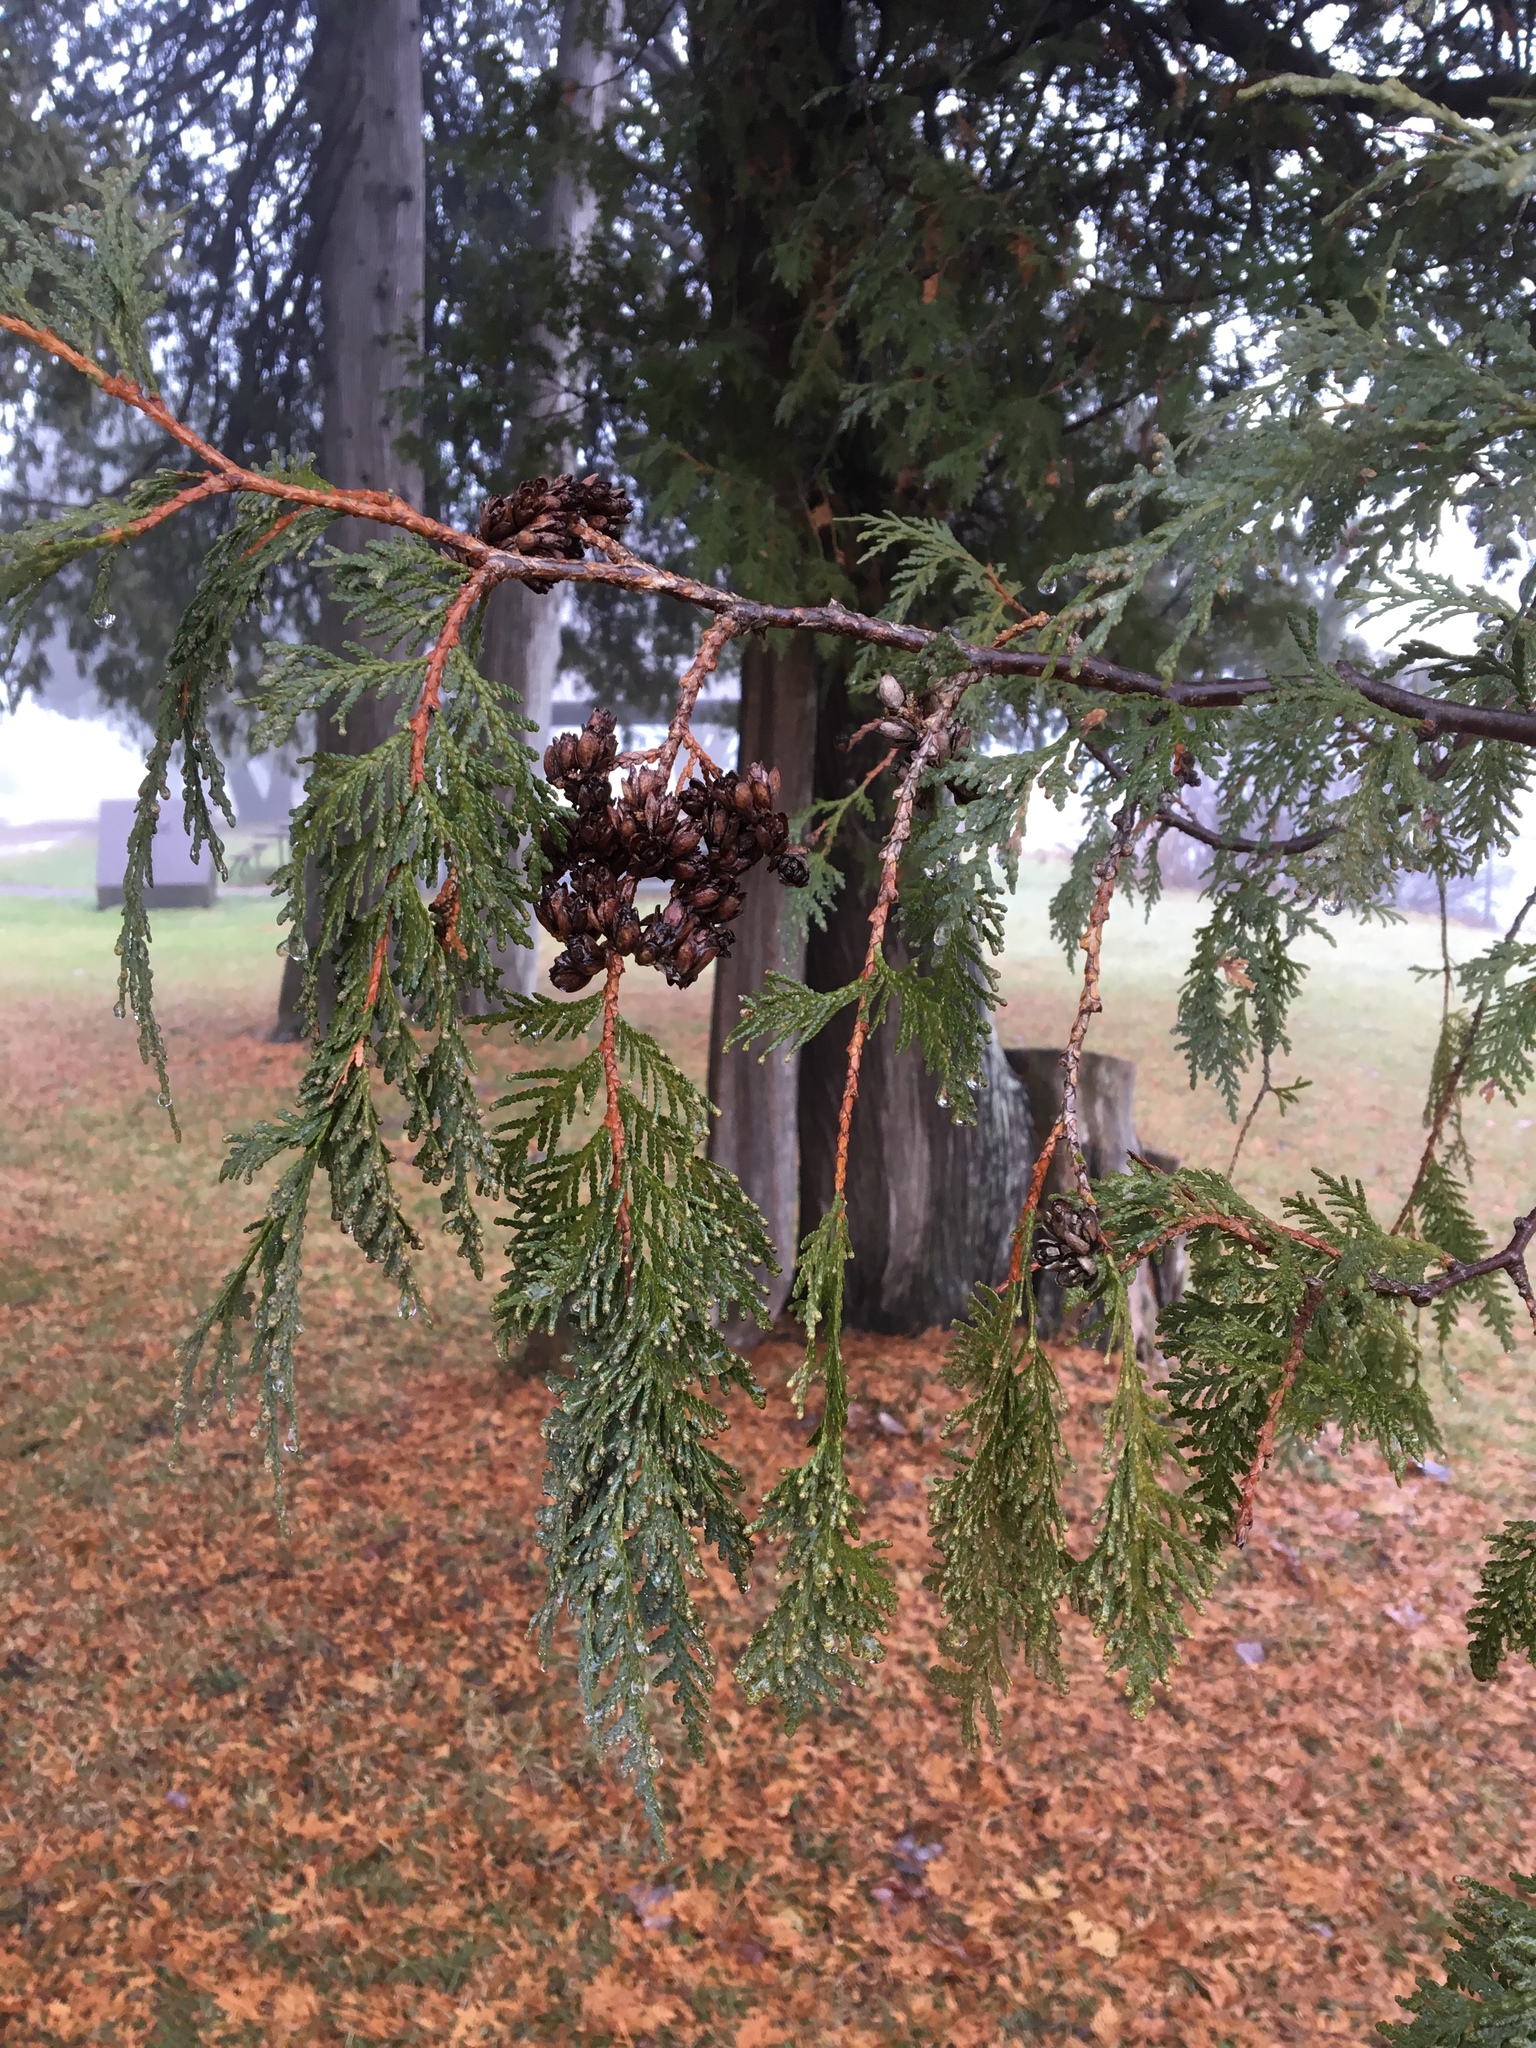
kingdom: Plantae
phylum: Tracheophyta
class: Pinopsida
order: Pinales
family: Cupressaceae
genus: Thuja
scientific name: Thuja occidentalis
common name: Northern white-cedar
